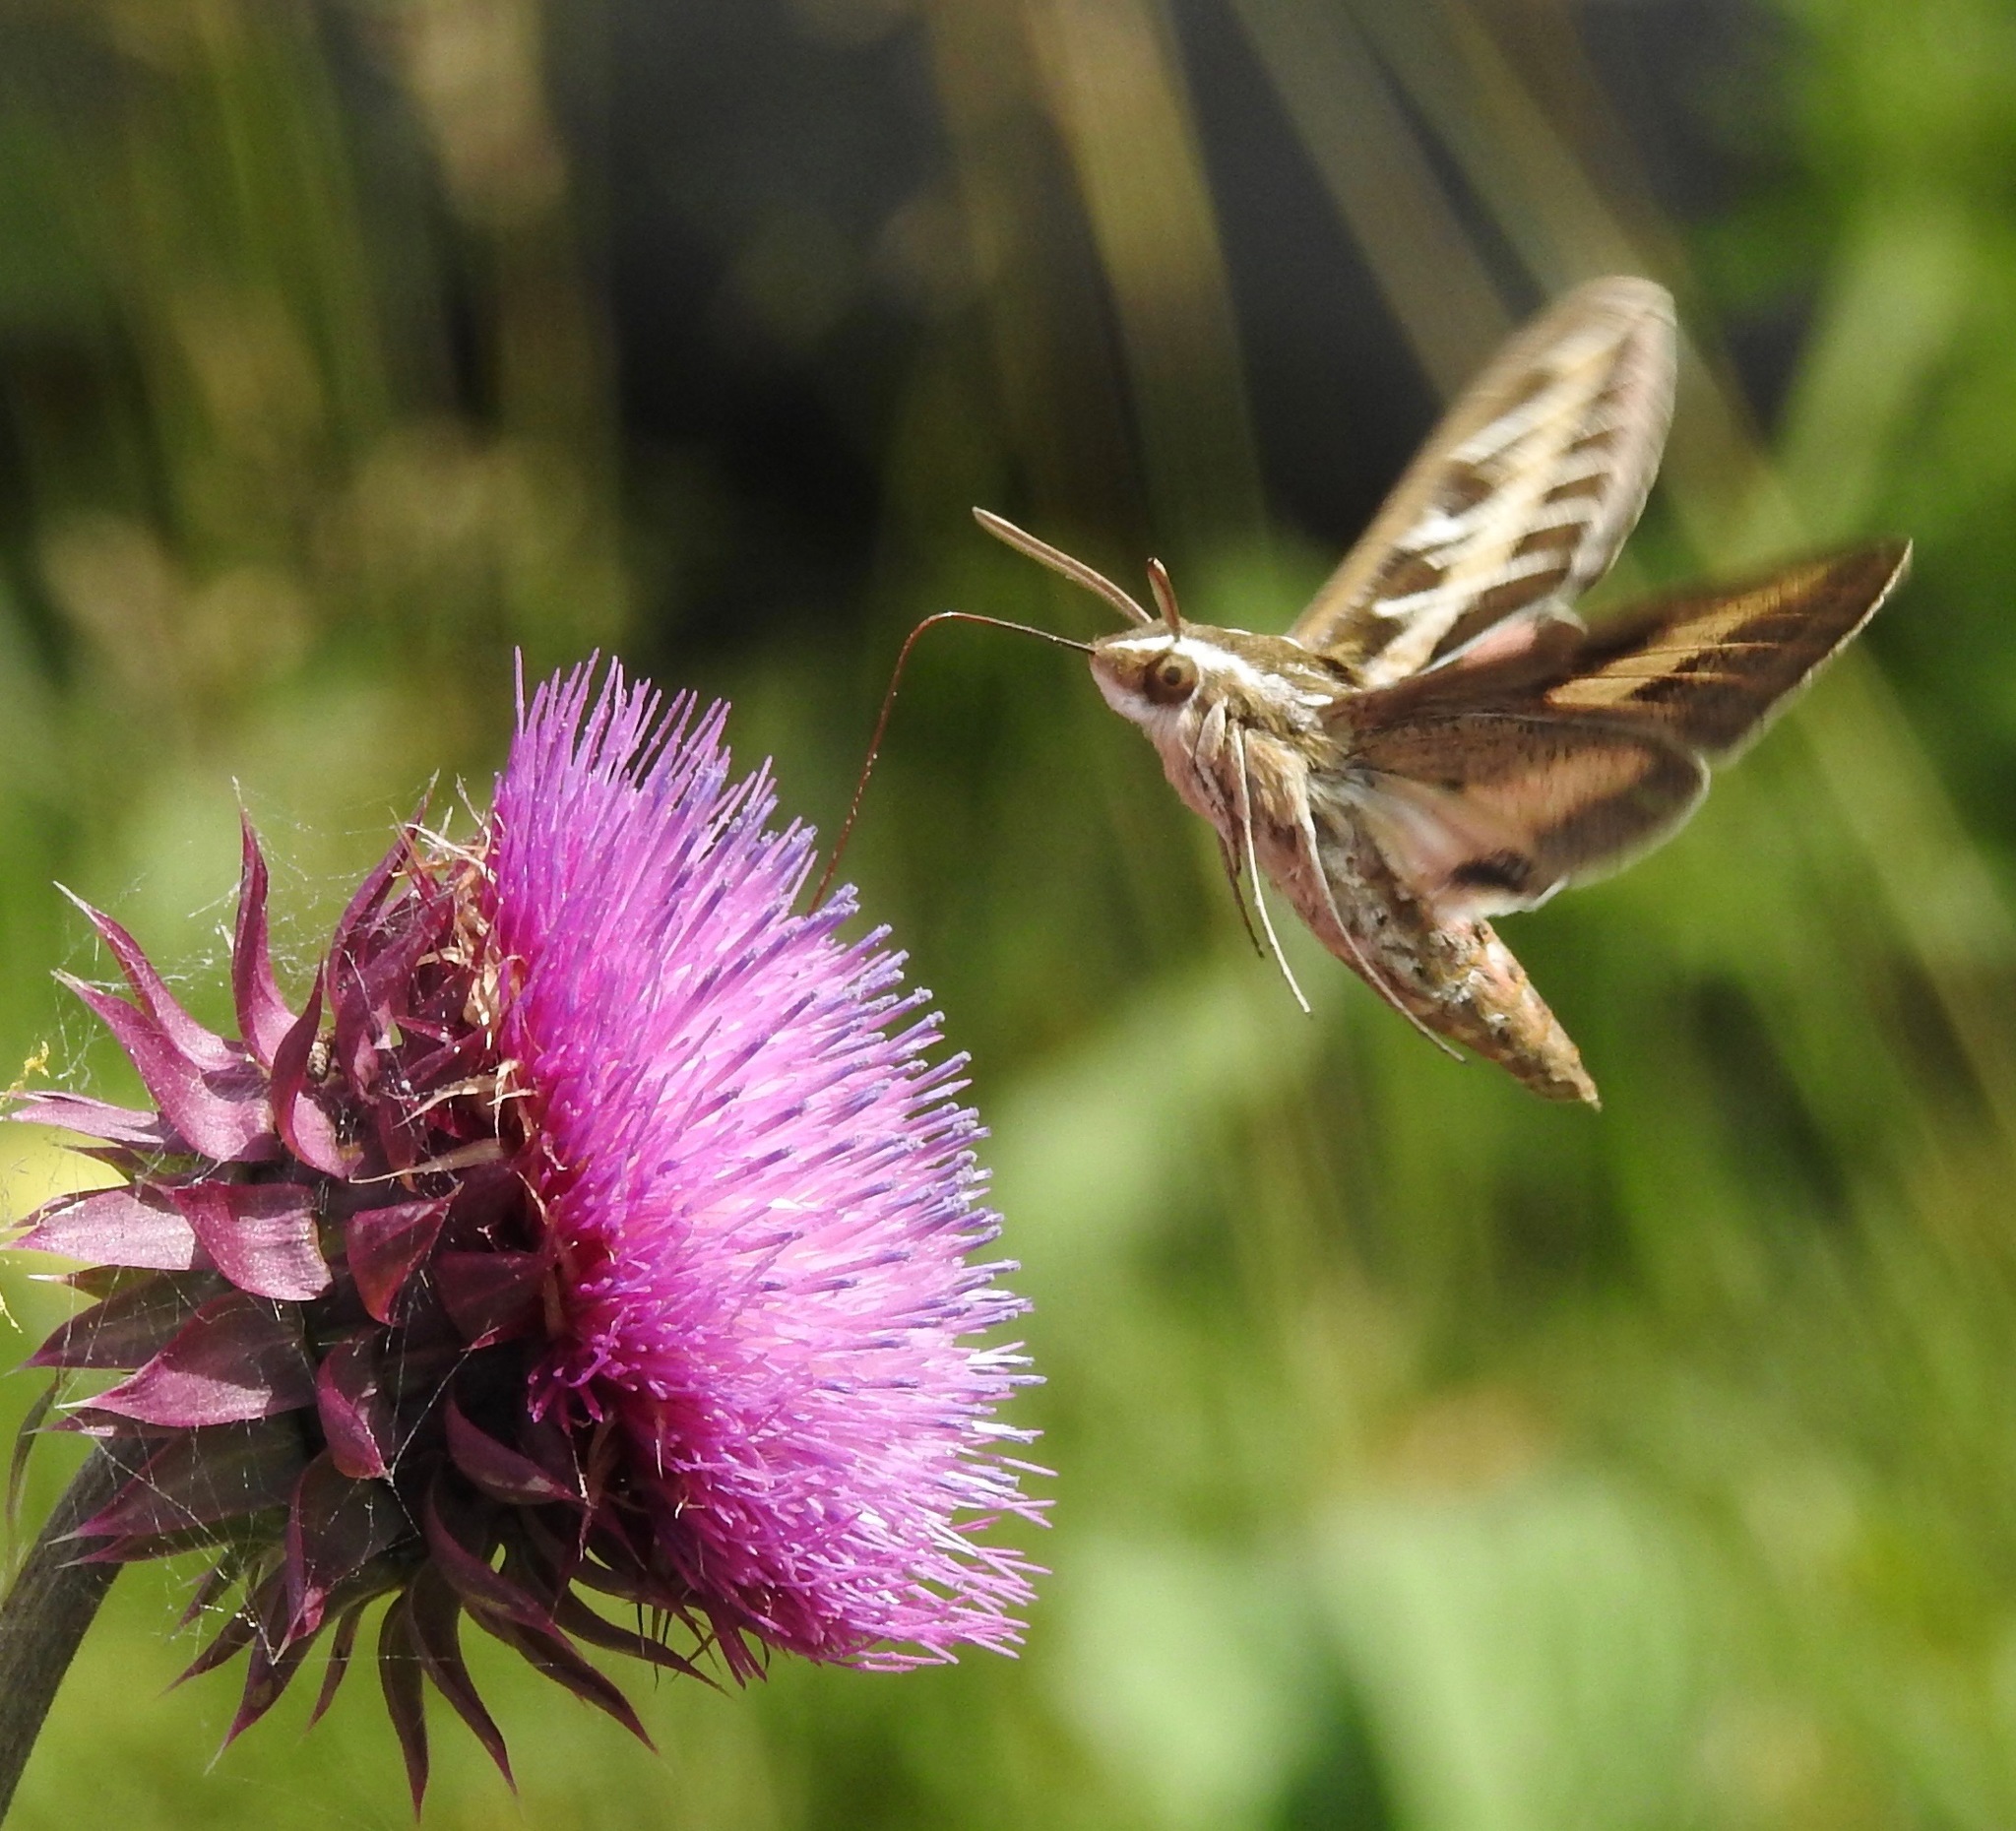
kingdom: Animalia
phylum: Arthropoda
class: Insecta
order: Lepidoptera
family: Sphingidae
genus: Hyles
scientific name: Hyles lineata
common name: White-lined sphinx
